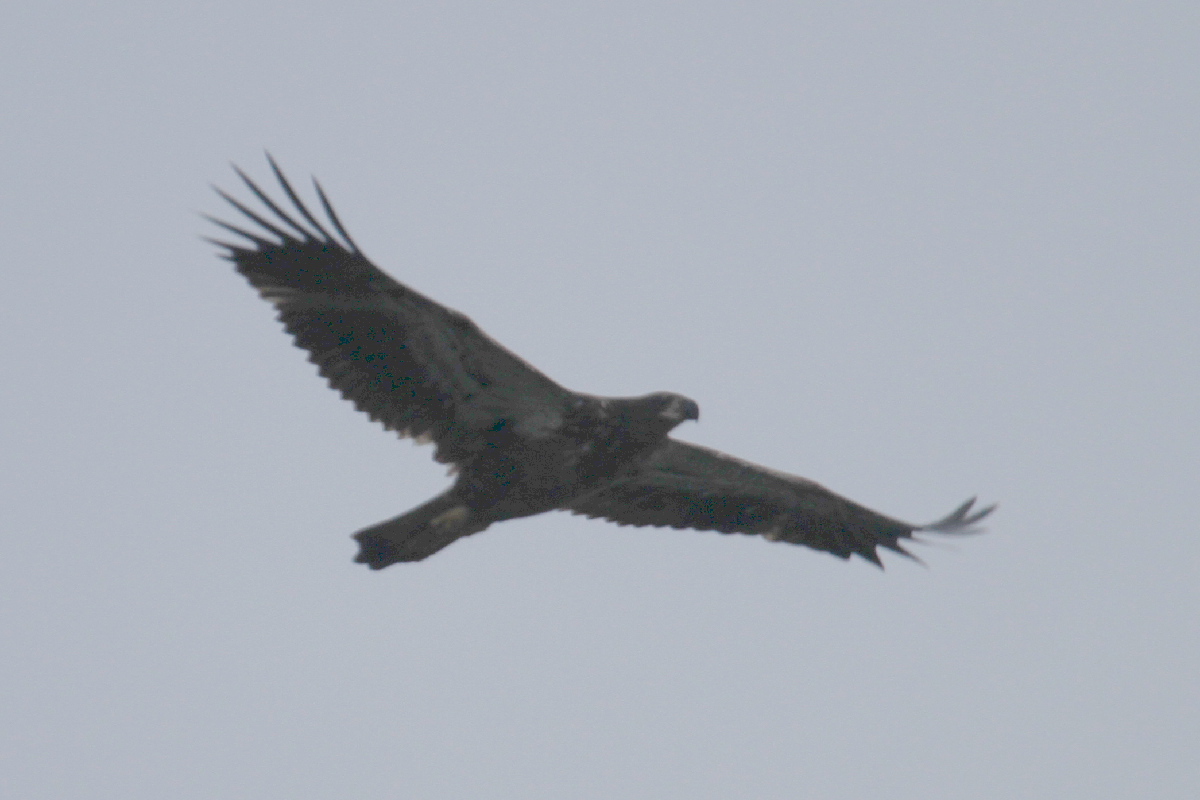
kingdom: Animalia
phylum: Chordata
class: Aves
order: Accipitriformes
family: Accipitridae
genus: Haliaeetus
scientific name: Haliaeetus leucocephalus
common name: Bald eagle
